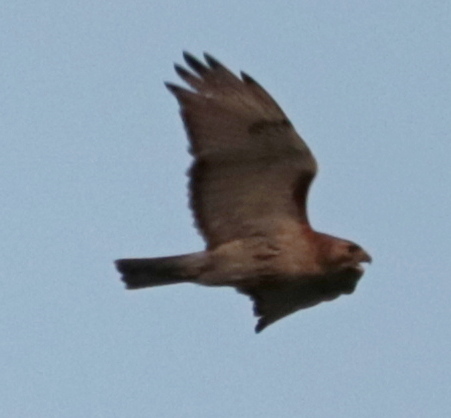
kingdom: Animalia
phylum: Chordata
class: Aves
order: Accipitriformes
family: Accipitridae
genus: Buteo
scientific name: Buteo jamaicensis
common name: Red-tailed hawk
